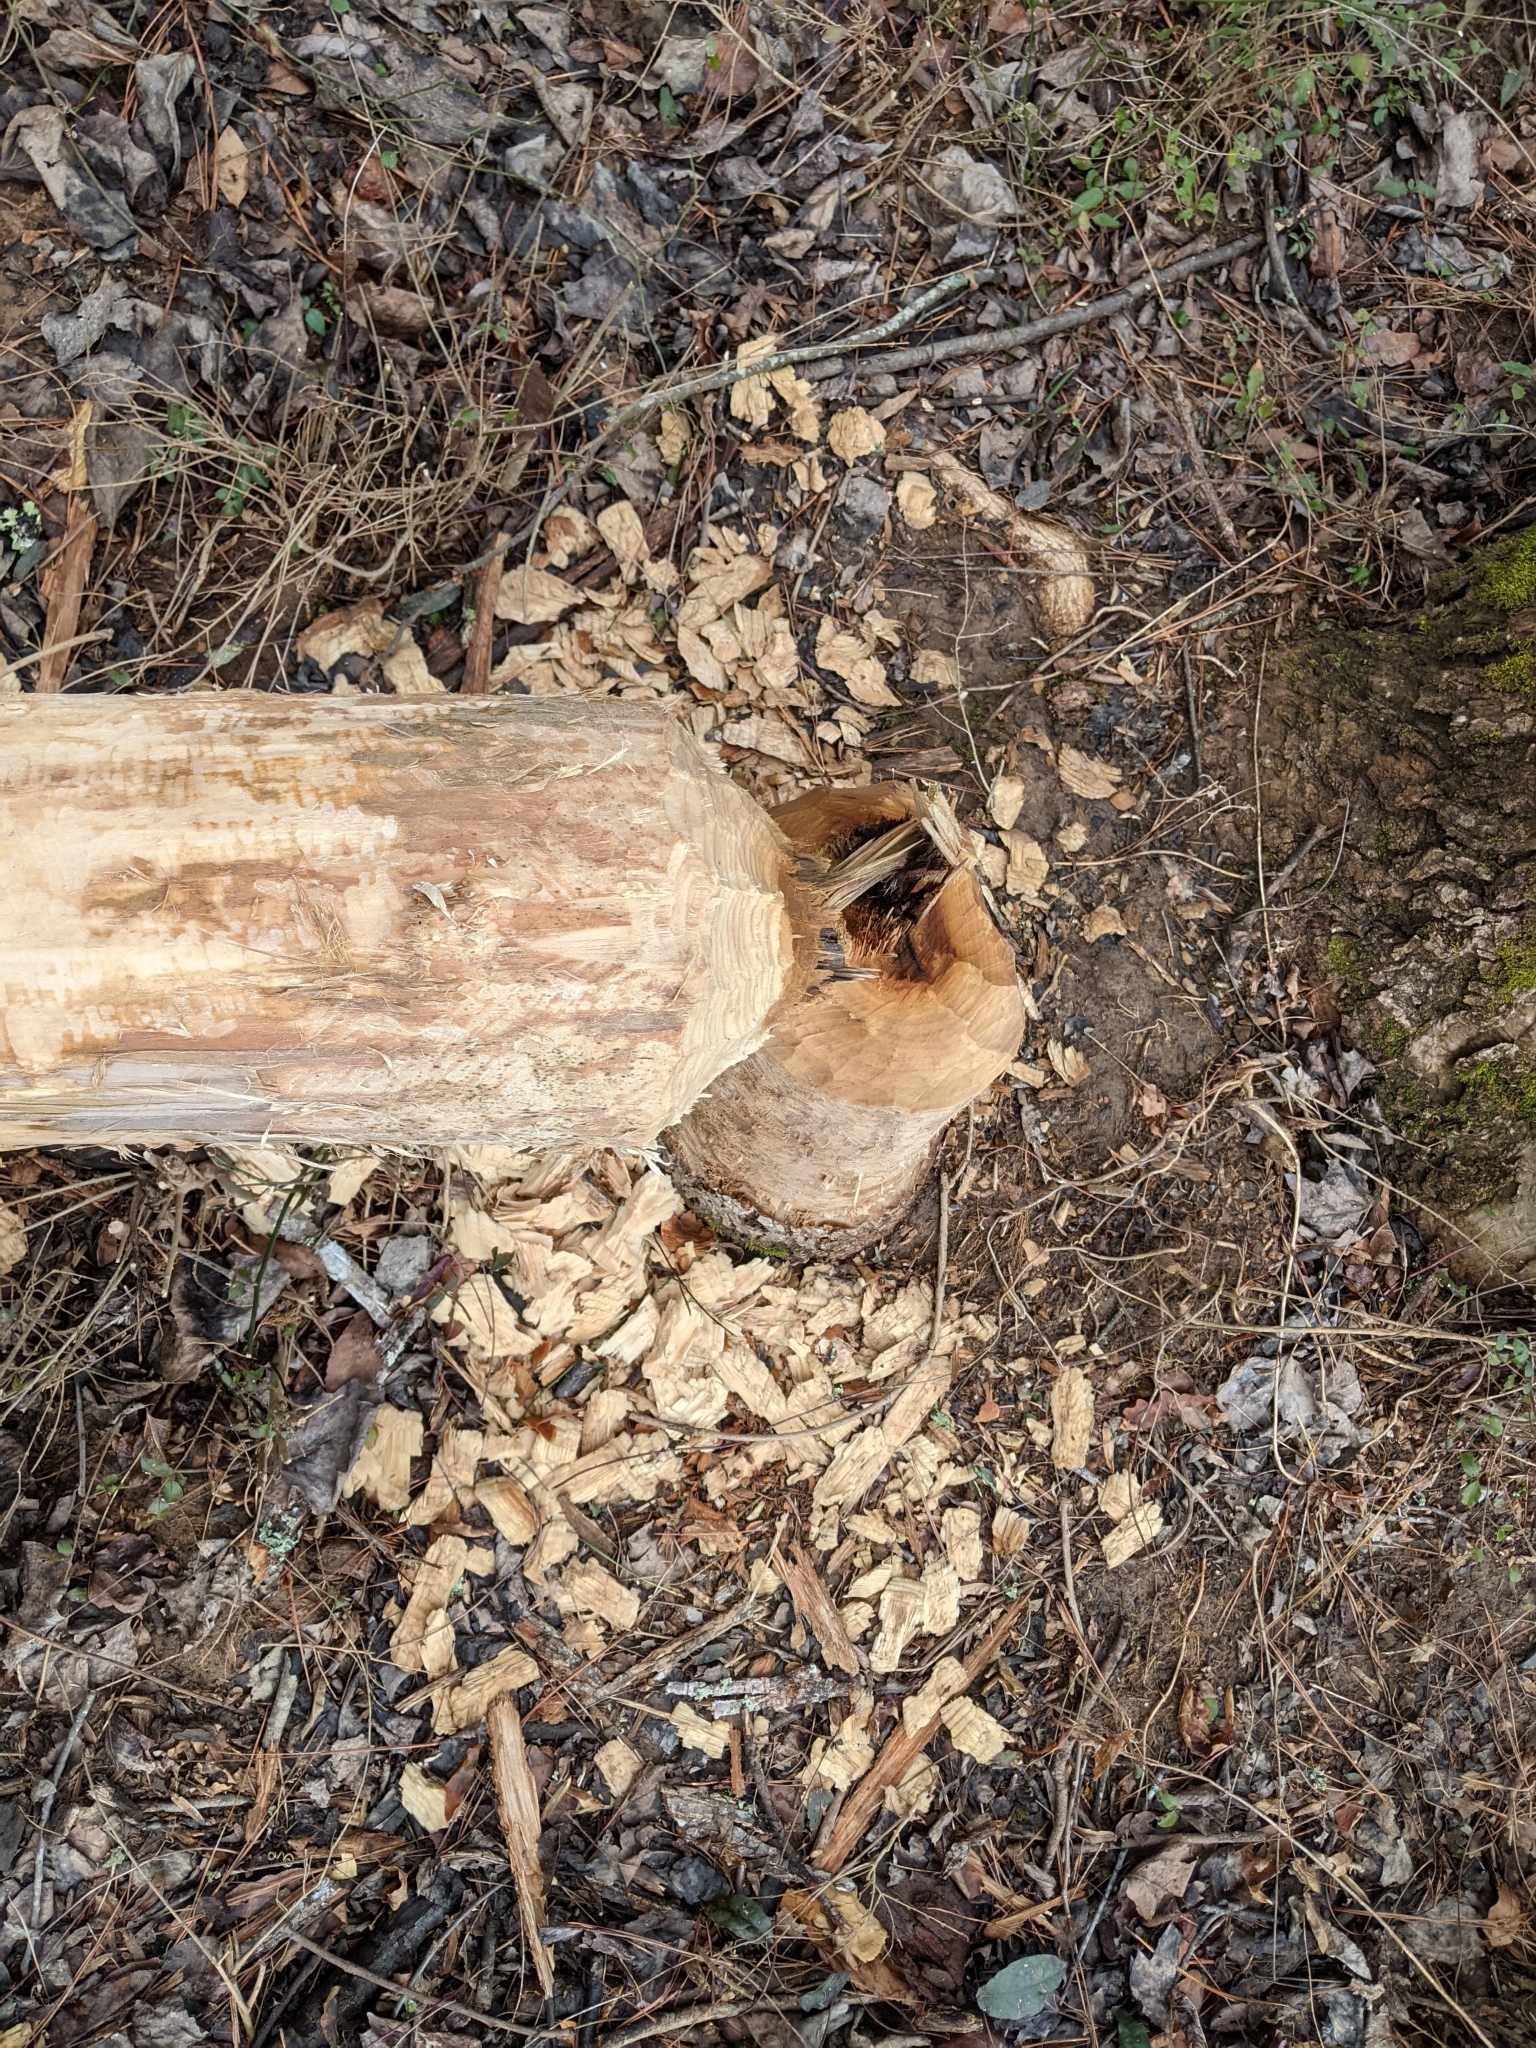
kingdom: Animalia
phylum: Chordata
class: Mammalia
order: Rodentia
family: Castoridae
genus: Castor
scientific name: Castor canadensis
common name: American beaver
